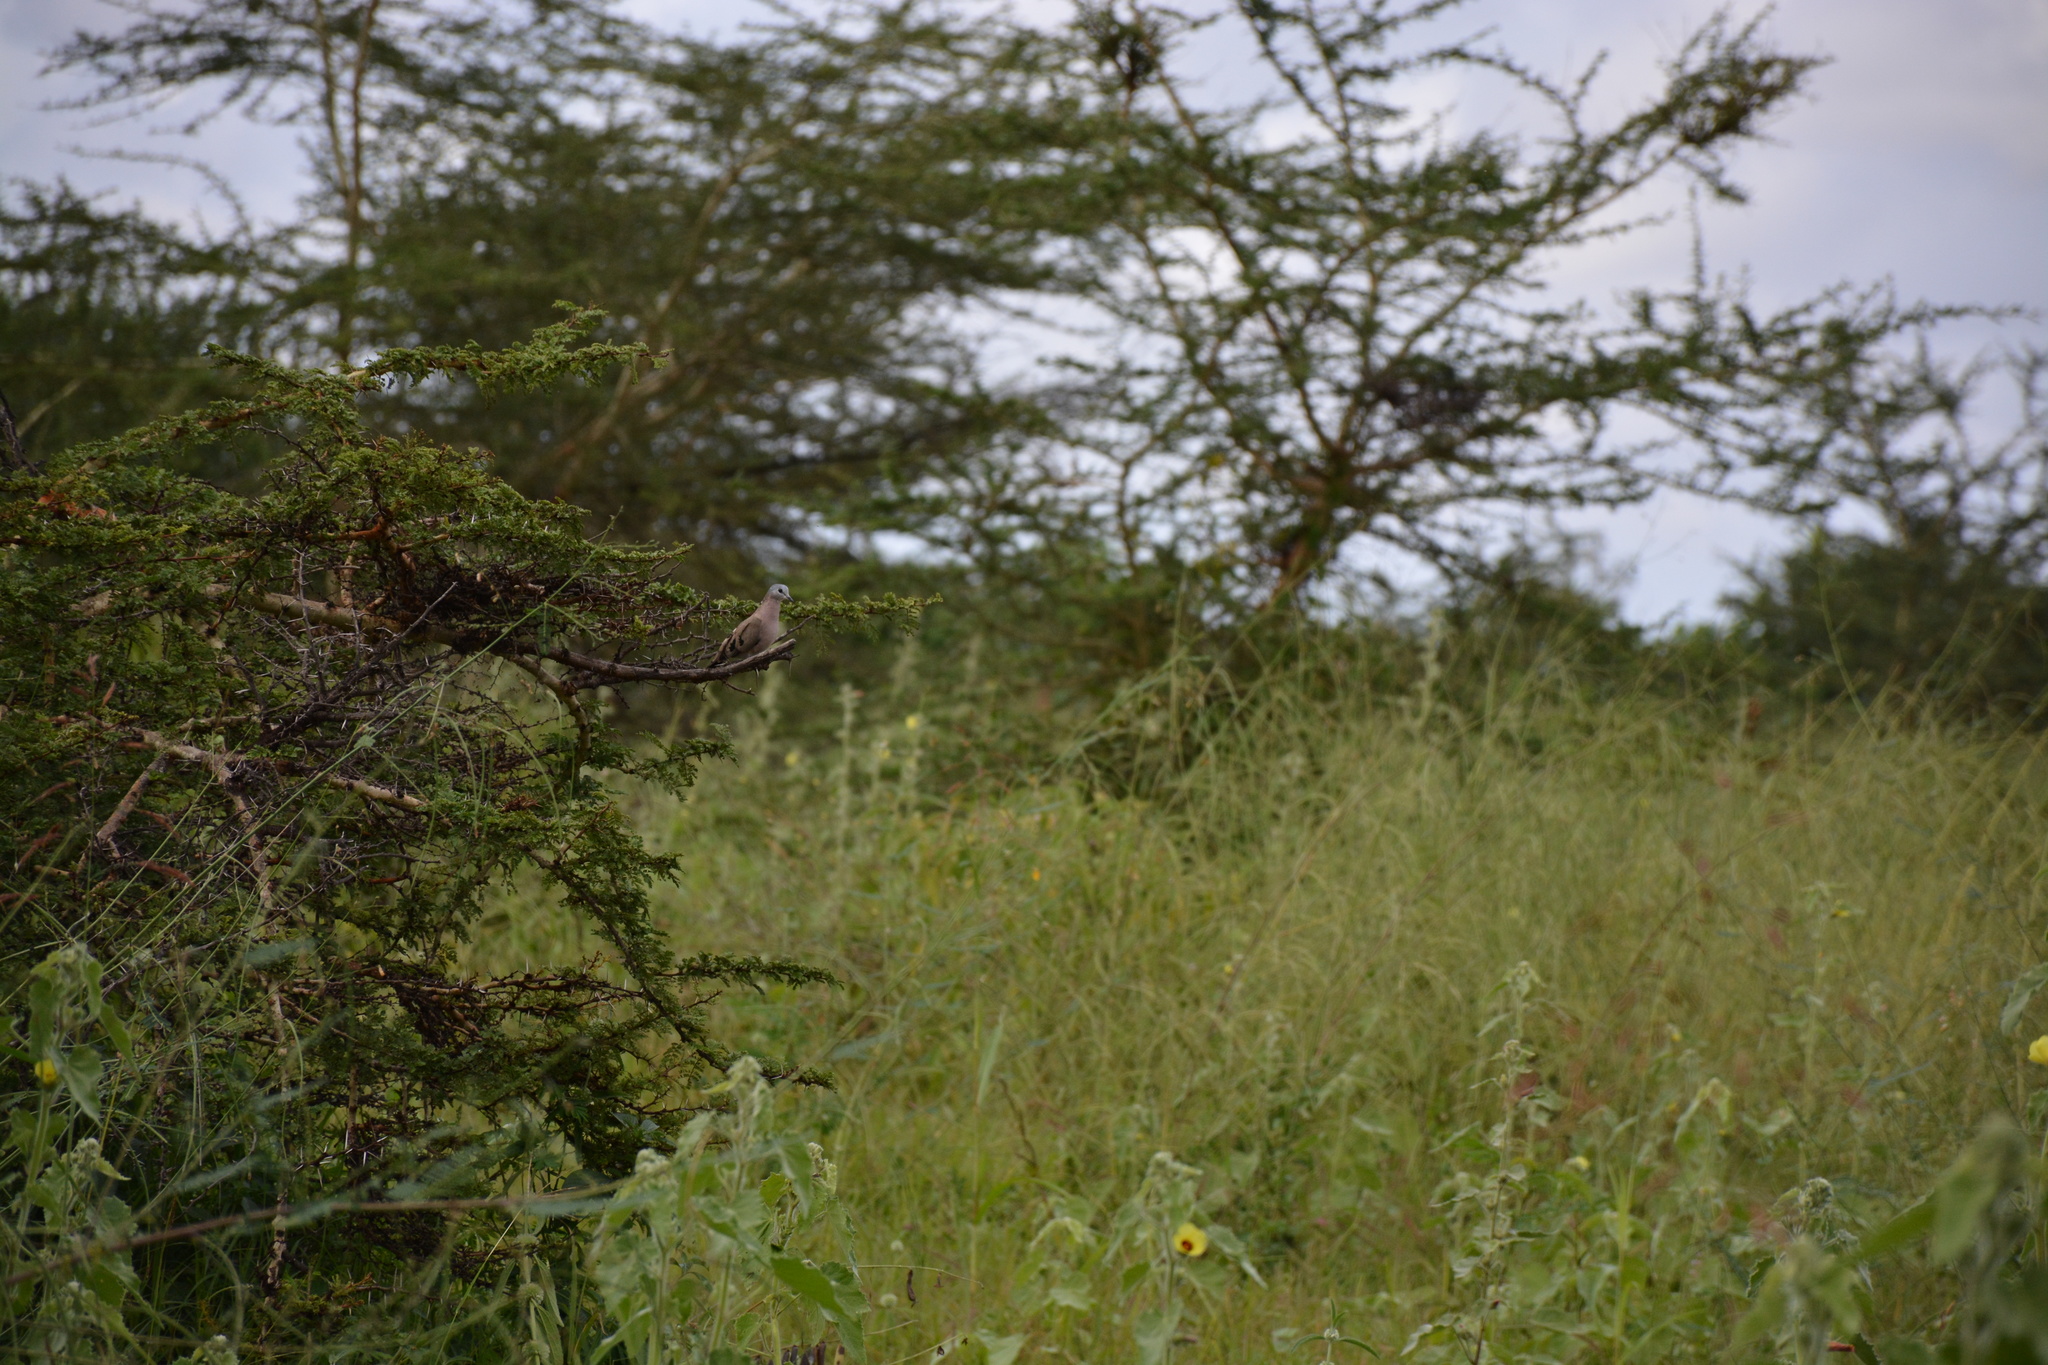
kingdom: Animalia
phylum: Chordata
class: Aves
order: Columbiformes
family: Columbidae
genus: Turtur
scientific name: Turtur chalcospilos
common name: Emerald-spotted wood dove
